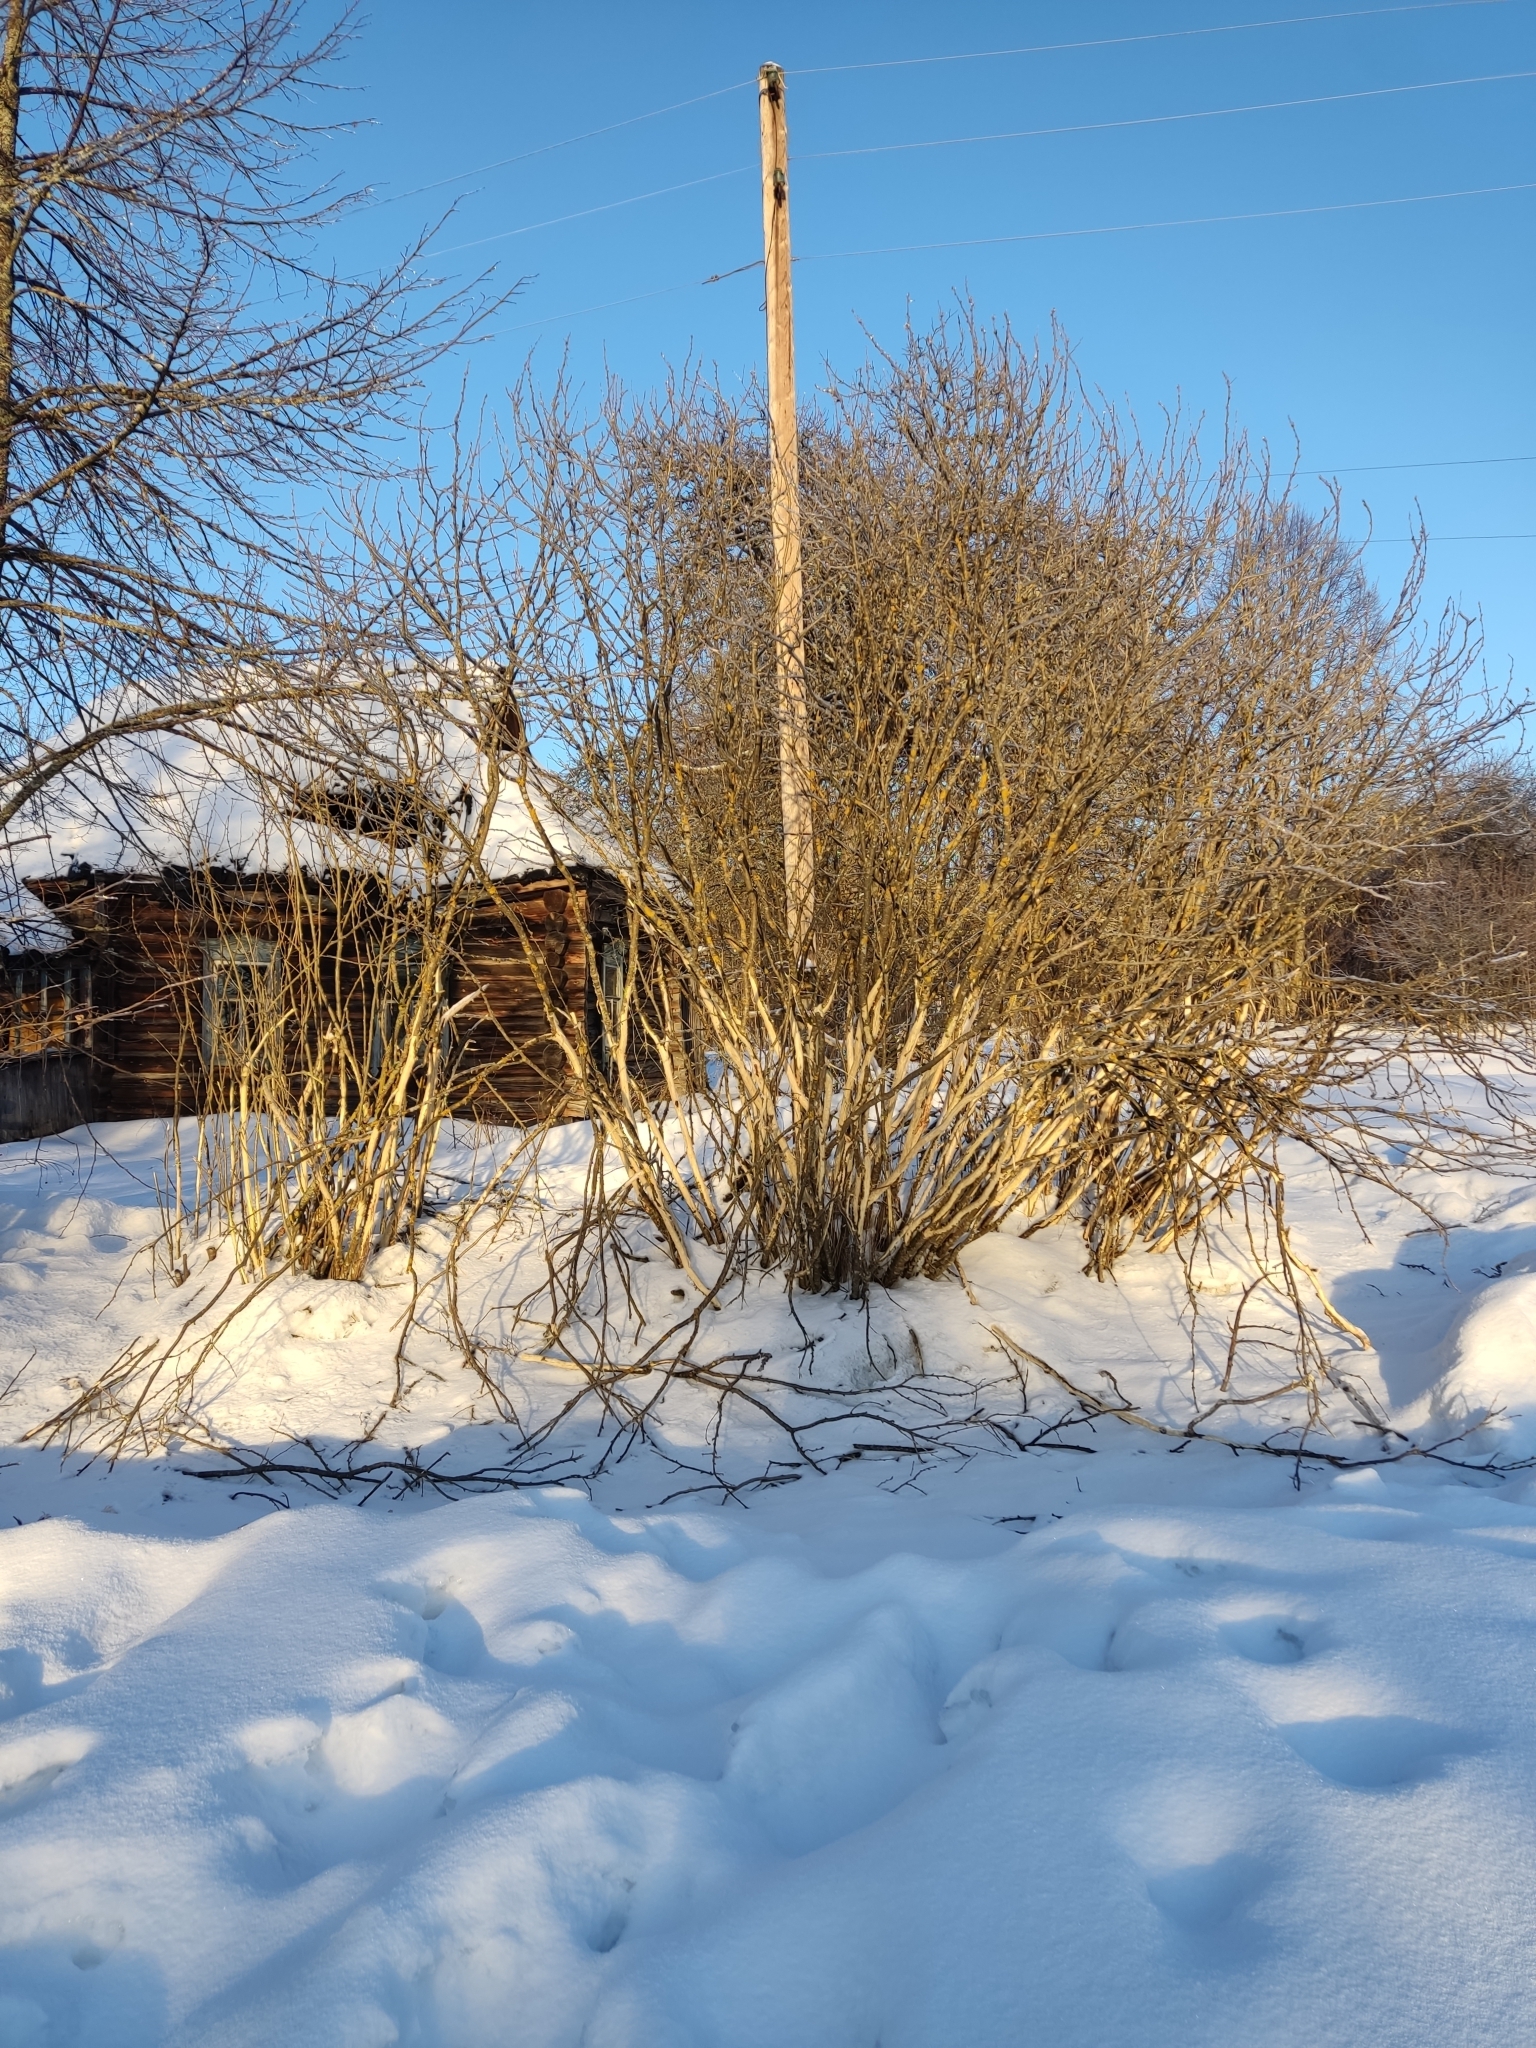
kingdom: Animalia
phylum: Chordata
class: Mammalia
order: Artiodactyla
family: Bovidae
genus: Bison
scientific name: Bison bonasus
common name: European bison
